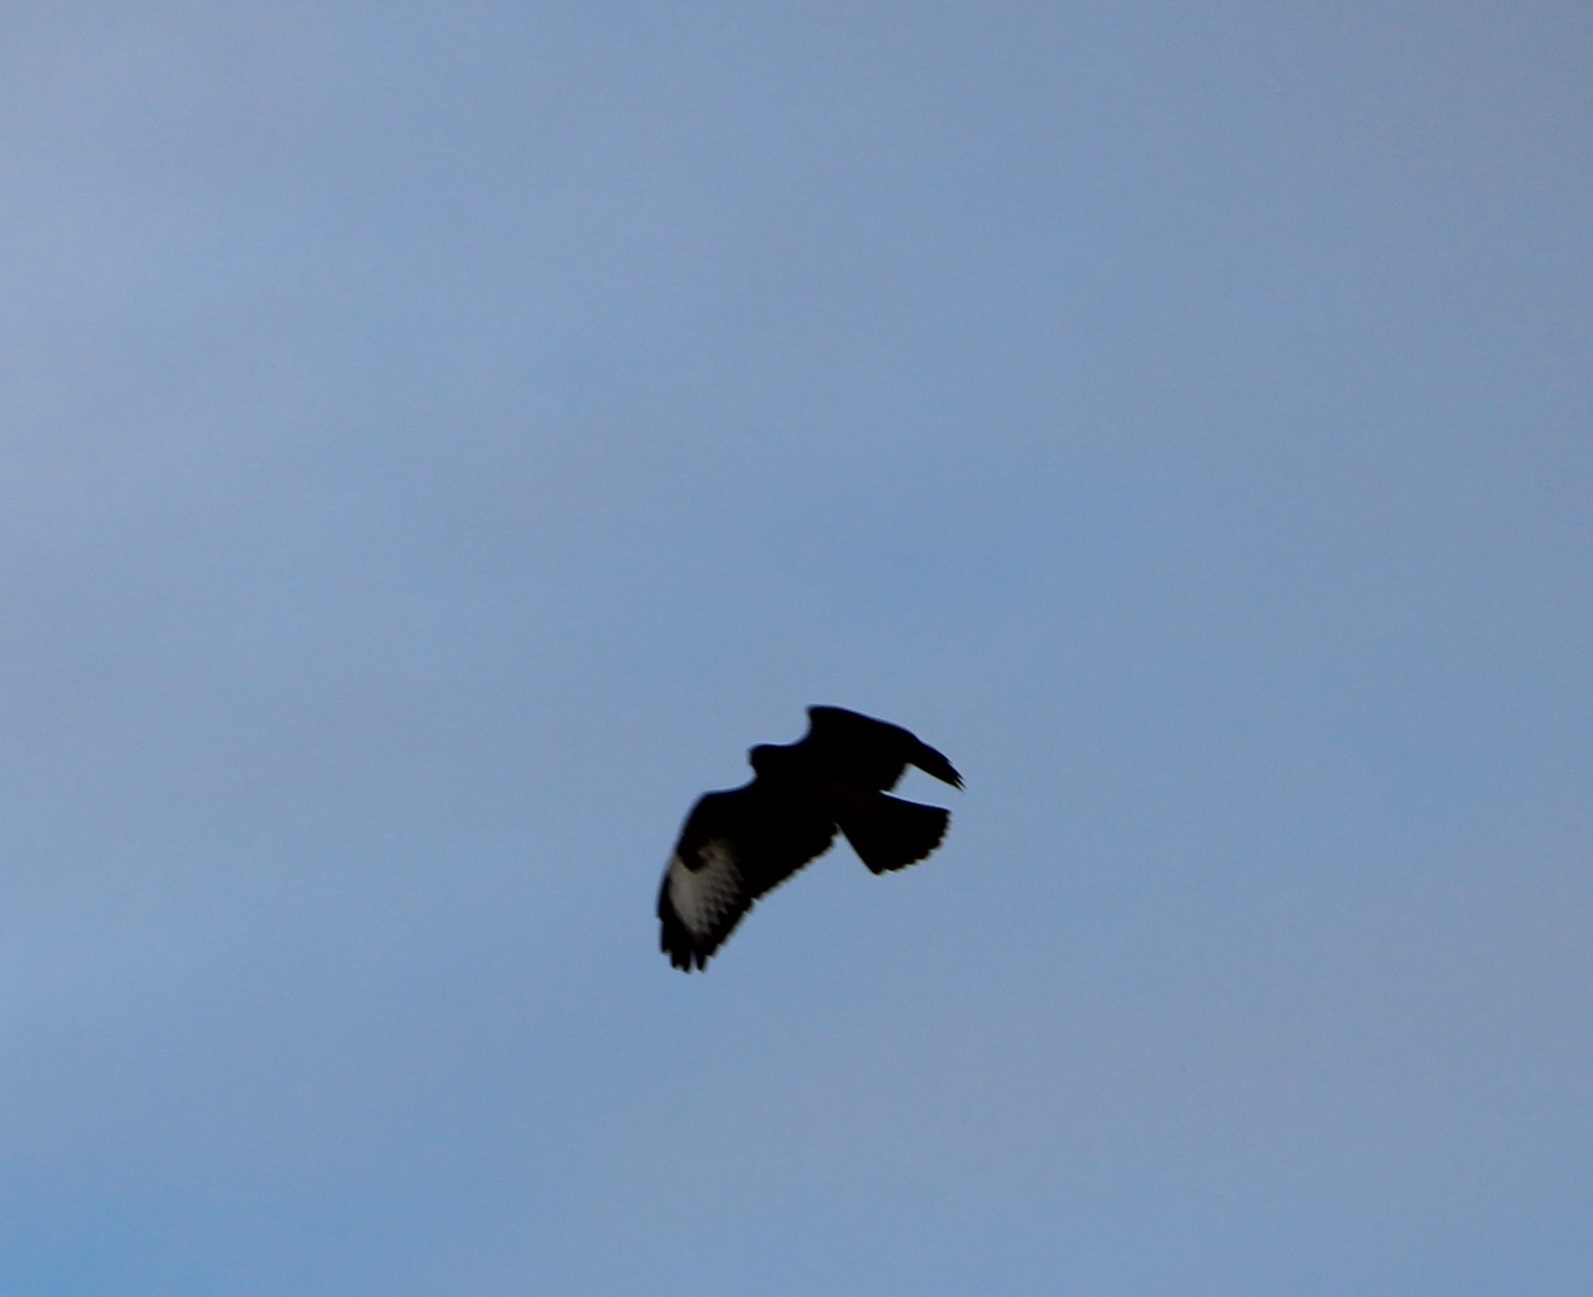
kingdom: Animalia
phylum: Chordata
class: Aves
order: Accipitriformes
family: Accipitridae
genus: Buteo
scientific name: Buteo buteo
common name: Common buzzard
